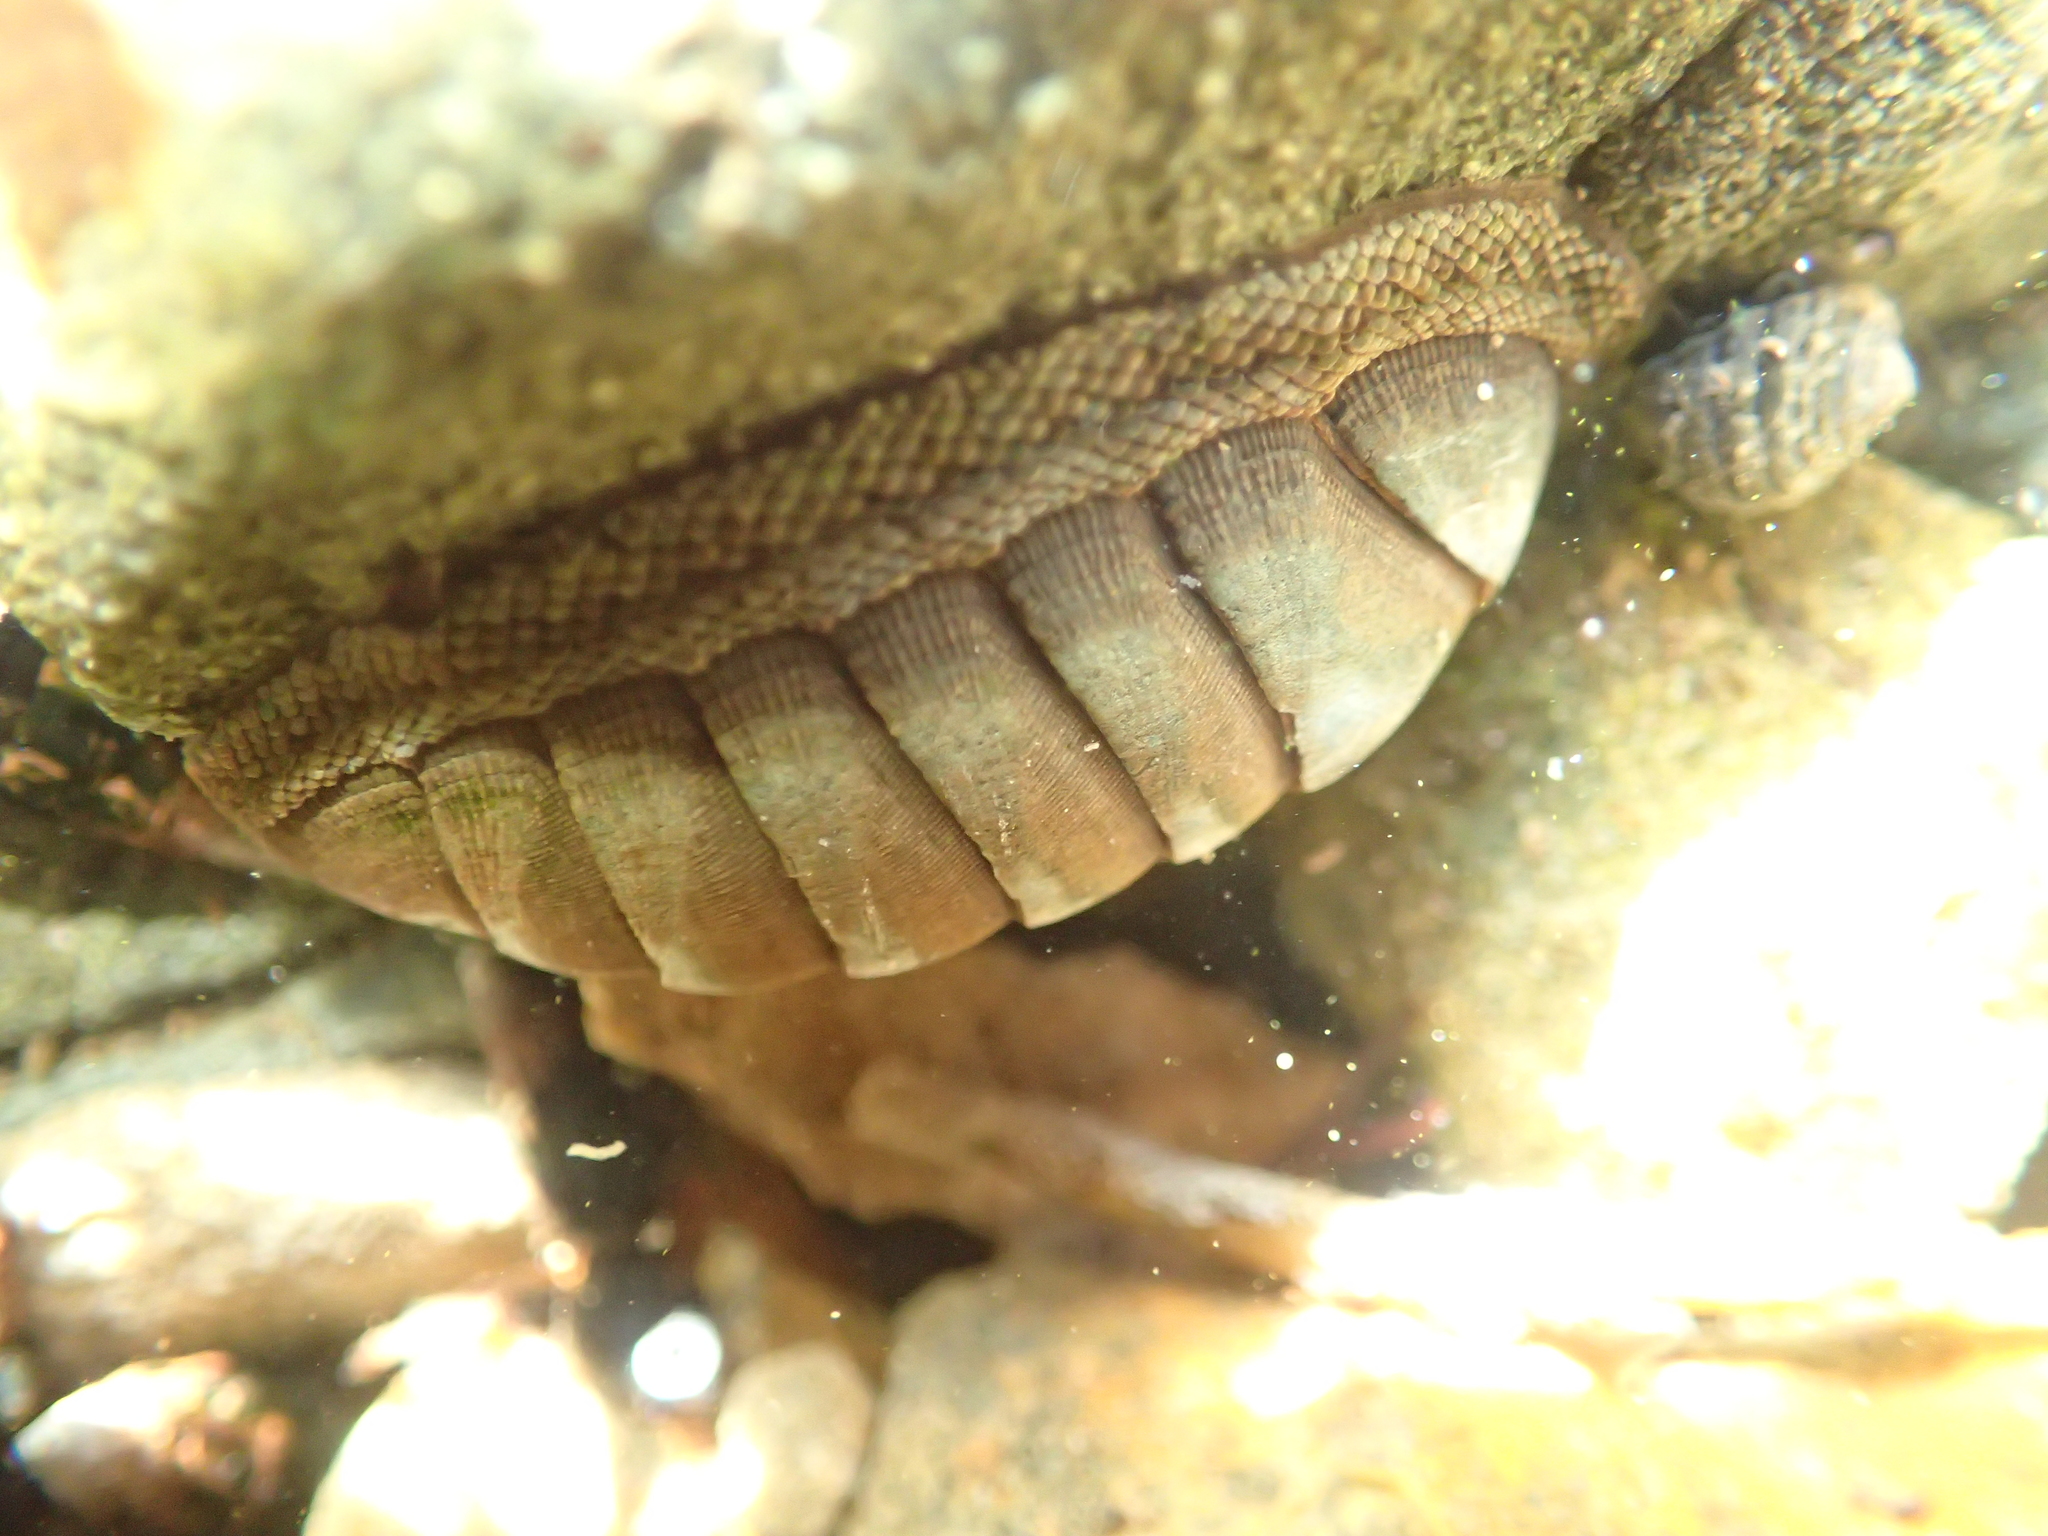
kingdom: Animalia
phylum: Mollusca
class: Polyplacophora
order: Chitonida
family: Chitonidae
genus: Chiton
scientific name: Chiton glaucus
